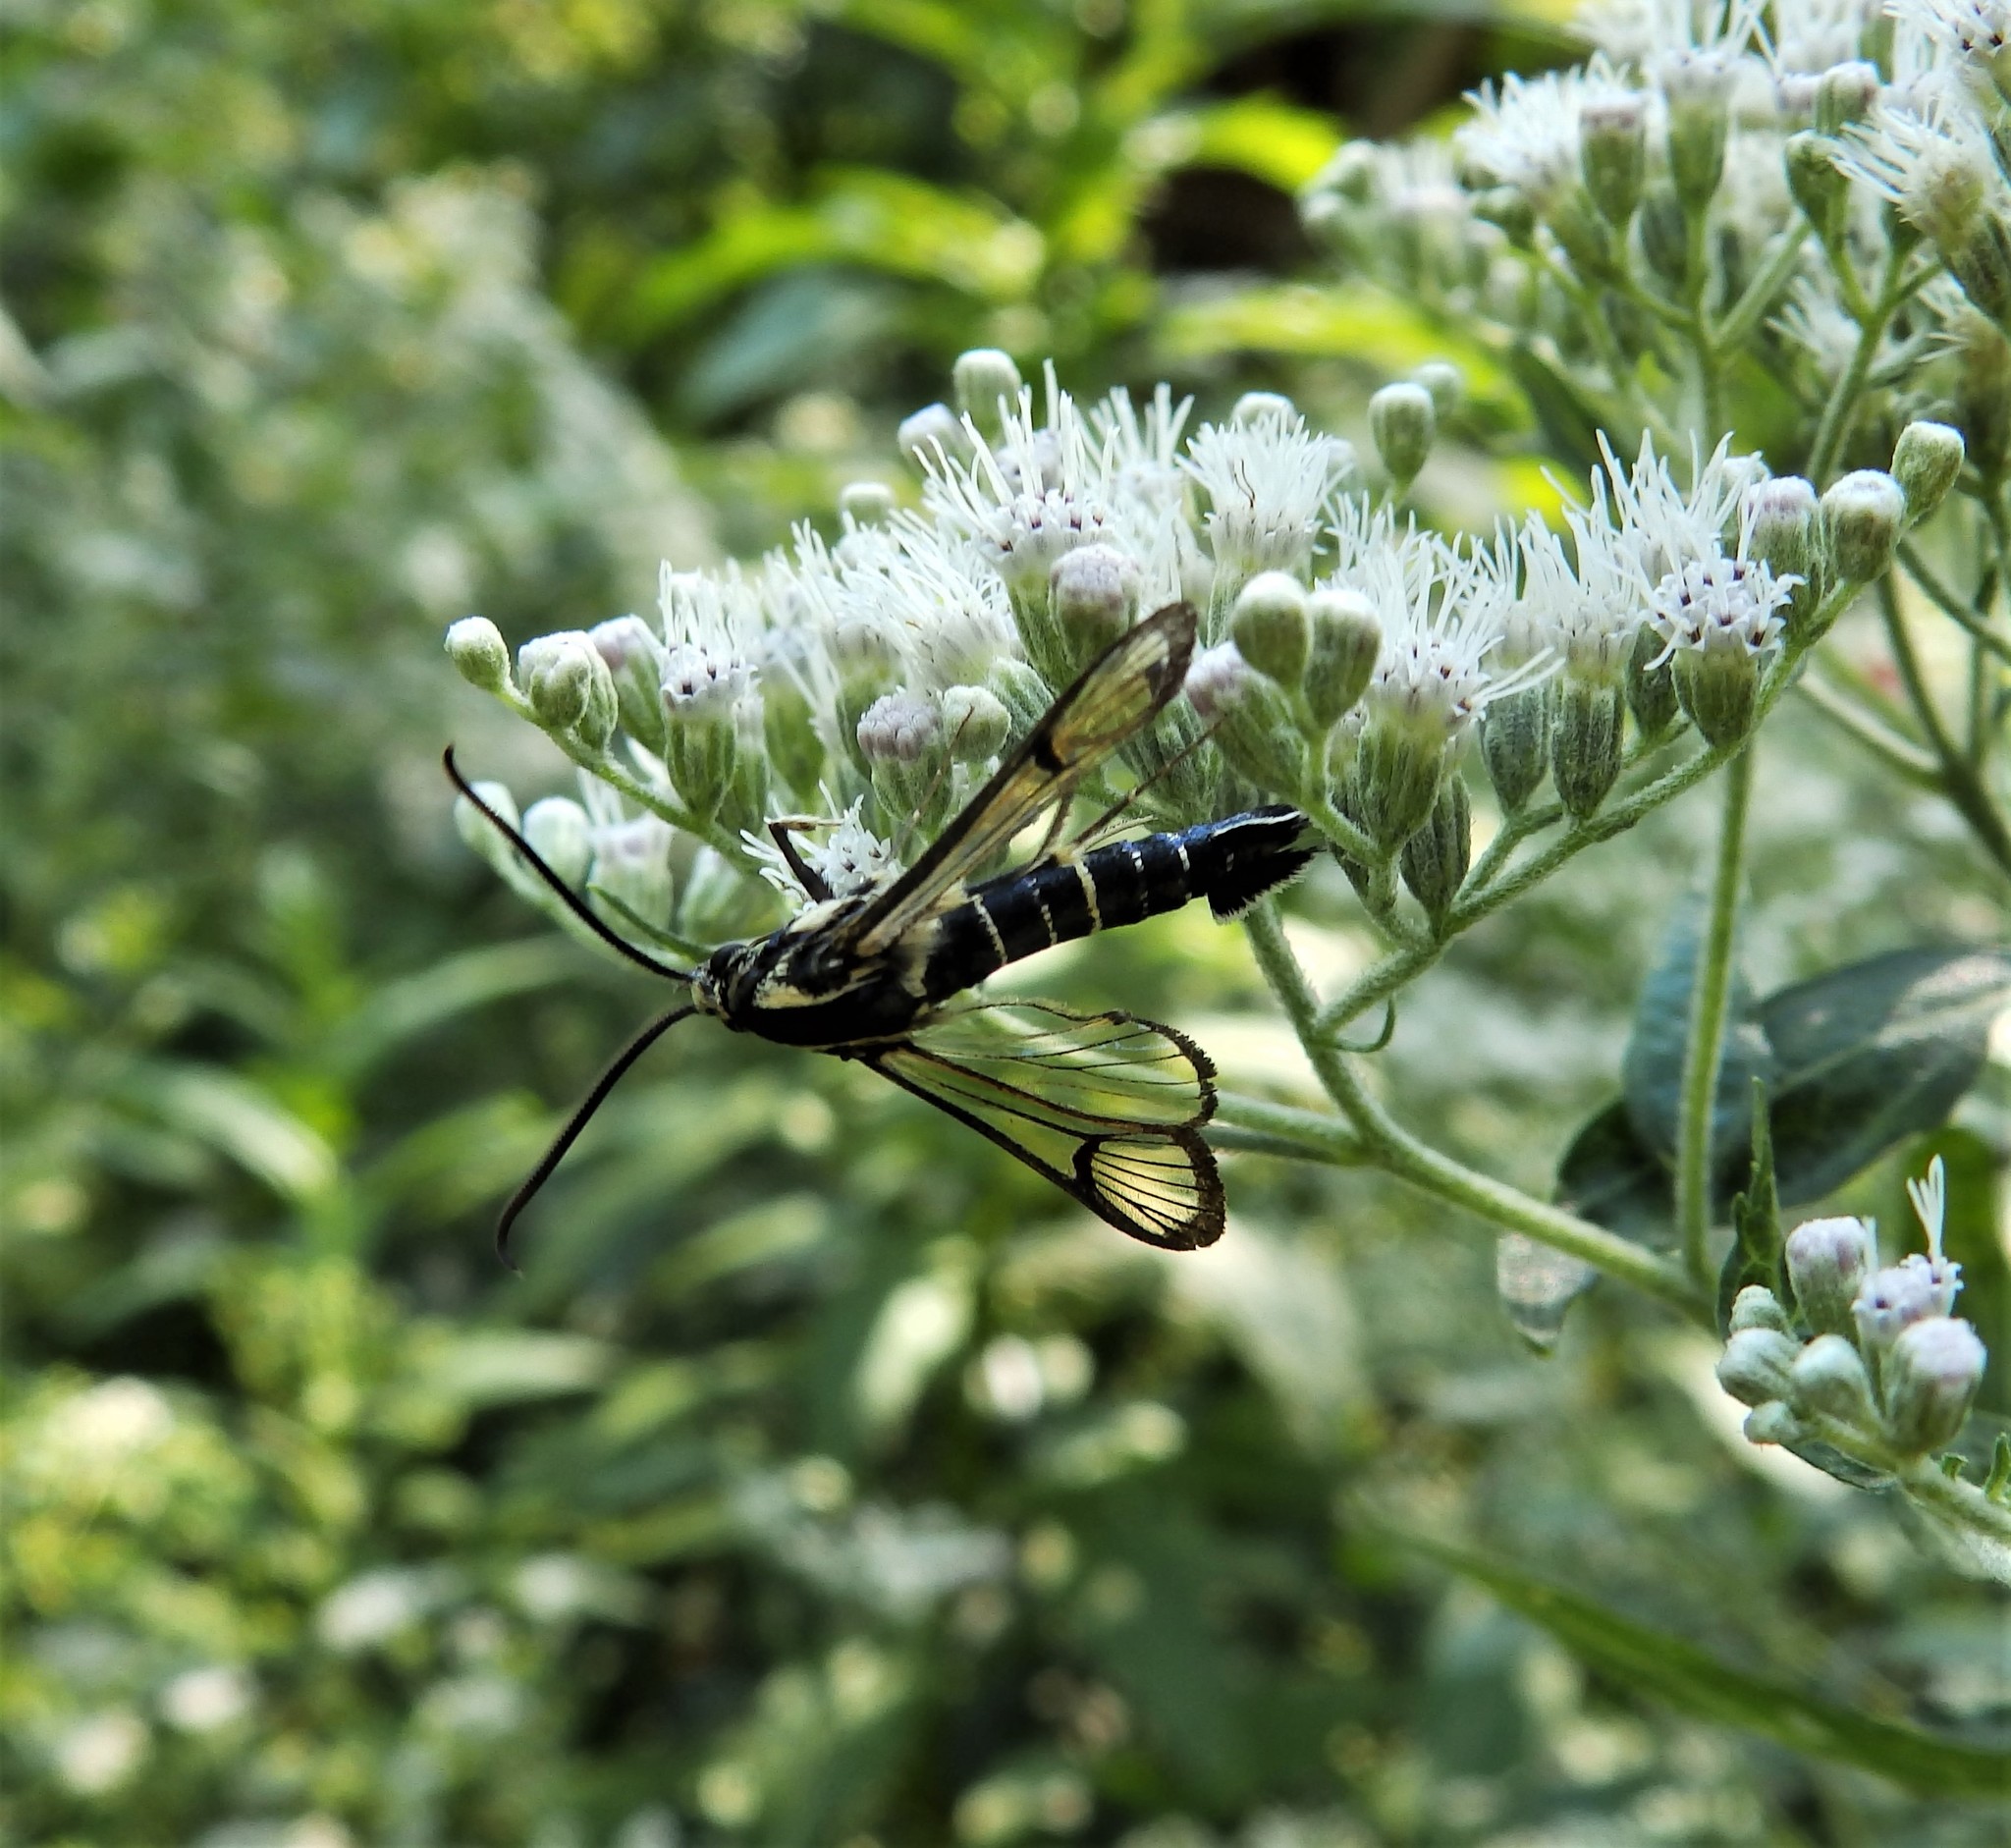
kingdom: Animalia
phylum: Arthropoda
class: Insecta
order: Lepidoptera
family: Sesiidae
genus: Synanthedon
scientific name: Synanthedon exitiosa
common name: Peachtree borer moth
